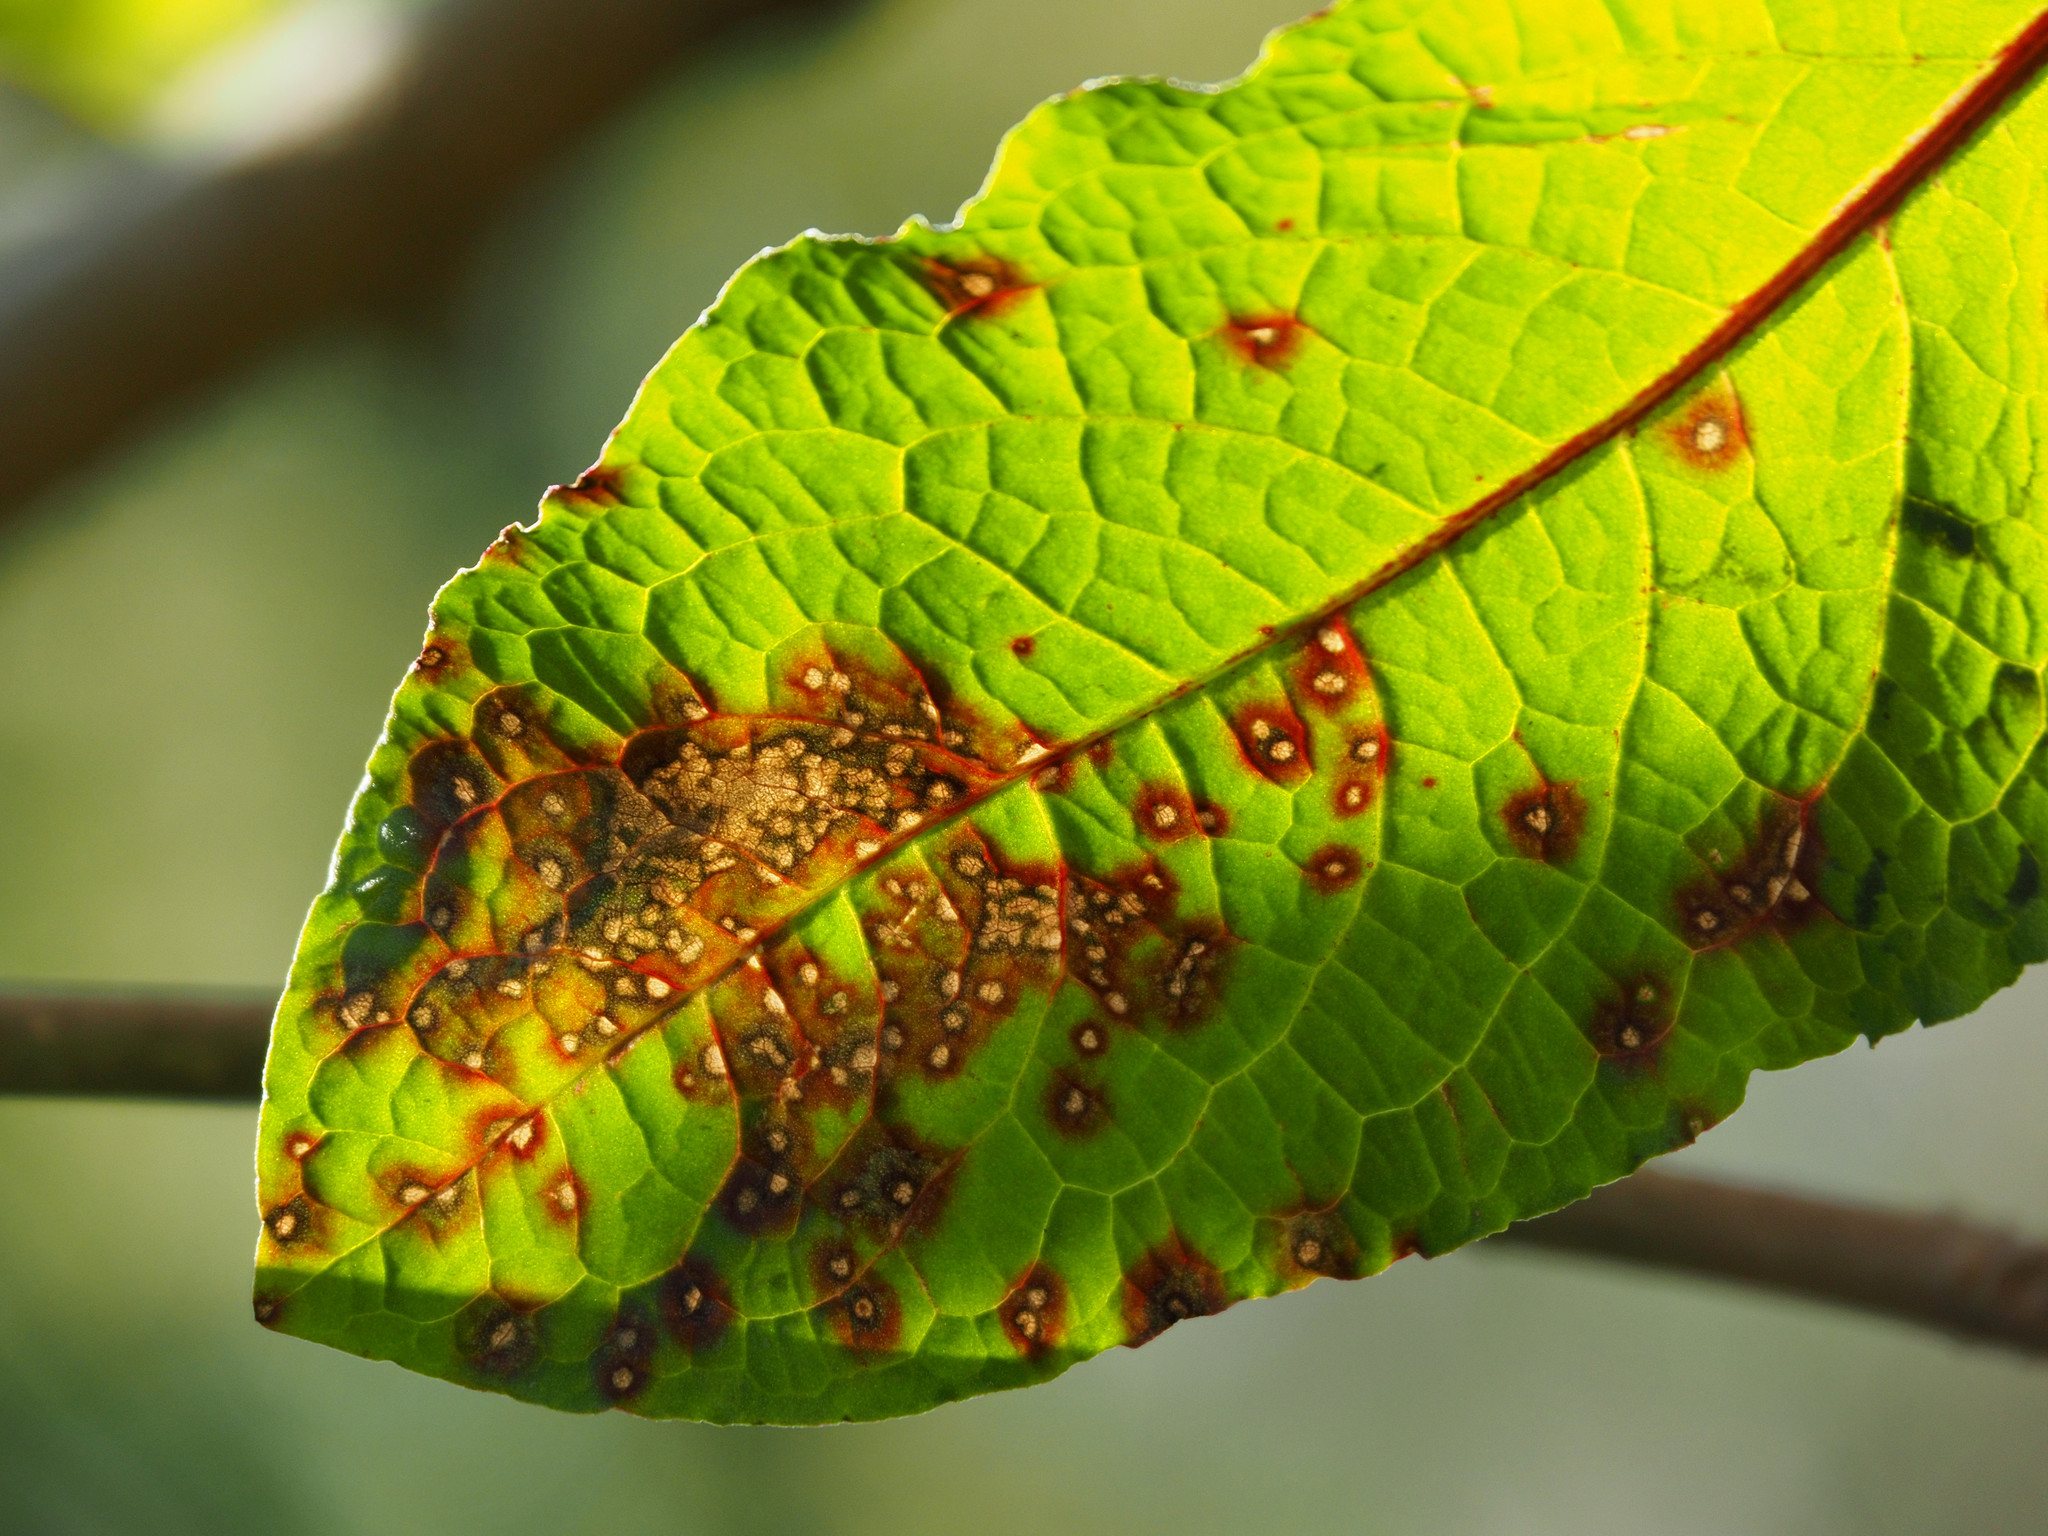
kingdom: Fungi
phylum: Ascomycota
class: Dothideomycetes
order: Mycosphaerellales
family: Mycosphaerellaceae
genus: Ramularia
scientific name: Ramularia rubella
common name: Red dock spot
